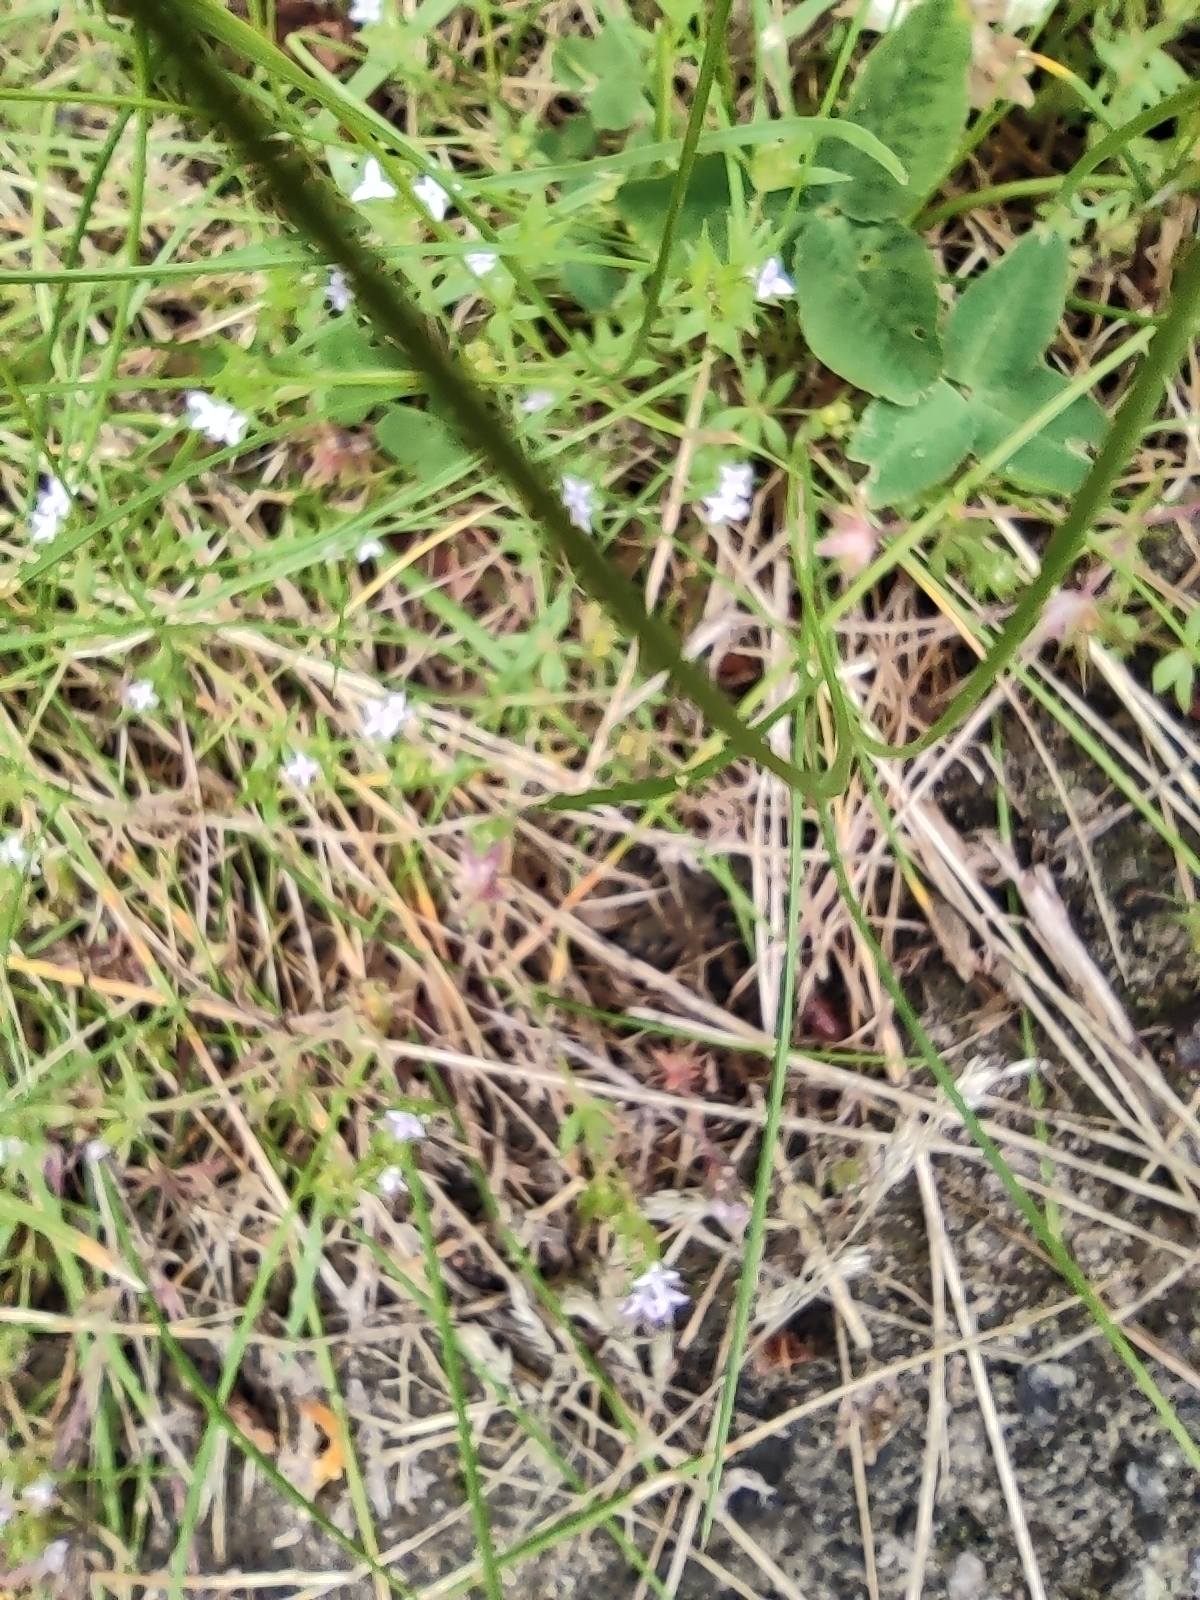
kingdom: Plantae
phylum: Tracheophyta
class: Magnoliopsida
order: Gentianales
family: Rubiaceae
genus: Sherardia
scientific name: Sherardia arvensis
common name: Field madder
